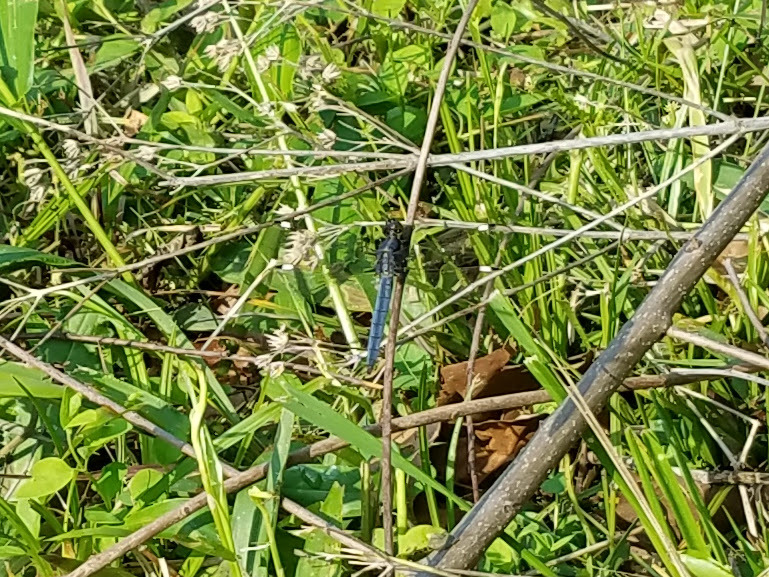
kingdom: Animalia
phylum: Arthropoda
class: Insecta
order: Odonata
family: Libellulidae
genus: Libellula
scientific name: Libellula cyanea
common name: Spangled skimmer
